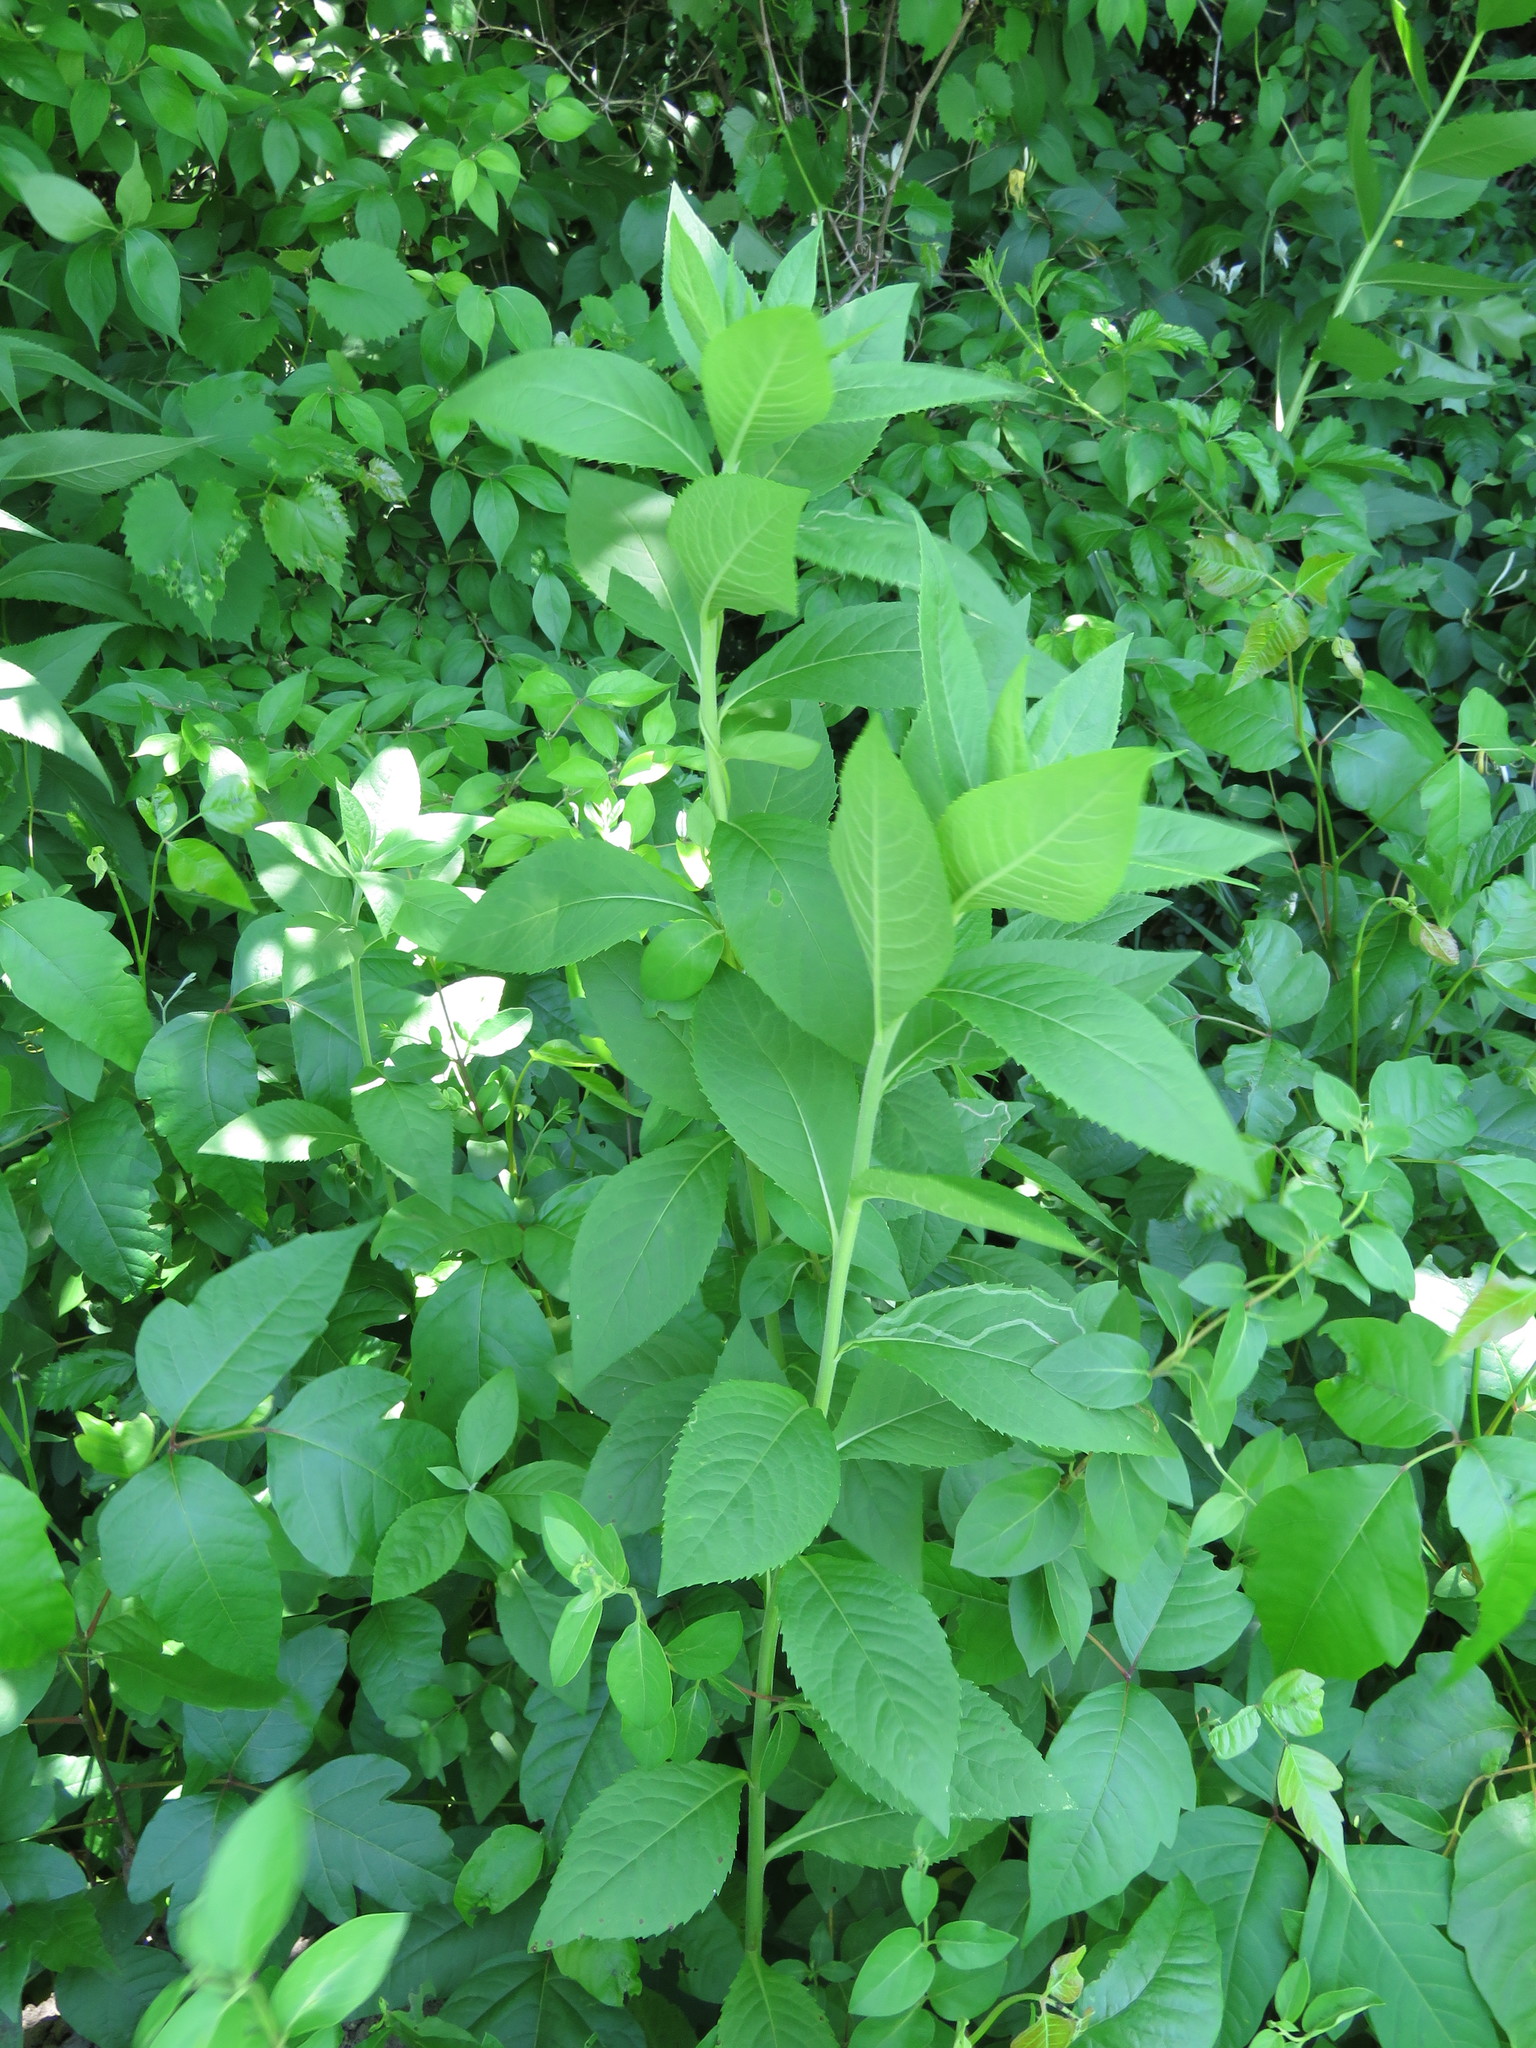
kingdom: Plantae
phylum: Tracheophyta
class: Magnoliopsida
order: Asterales
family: Asteraceae
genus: Vernonia
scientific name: Vernonia baldwinii
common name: Western ironweed
